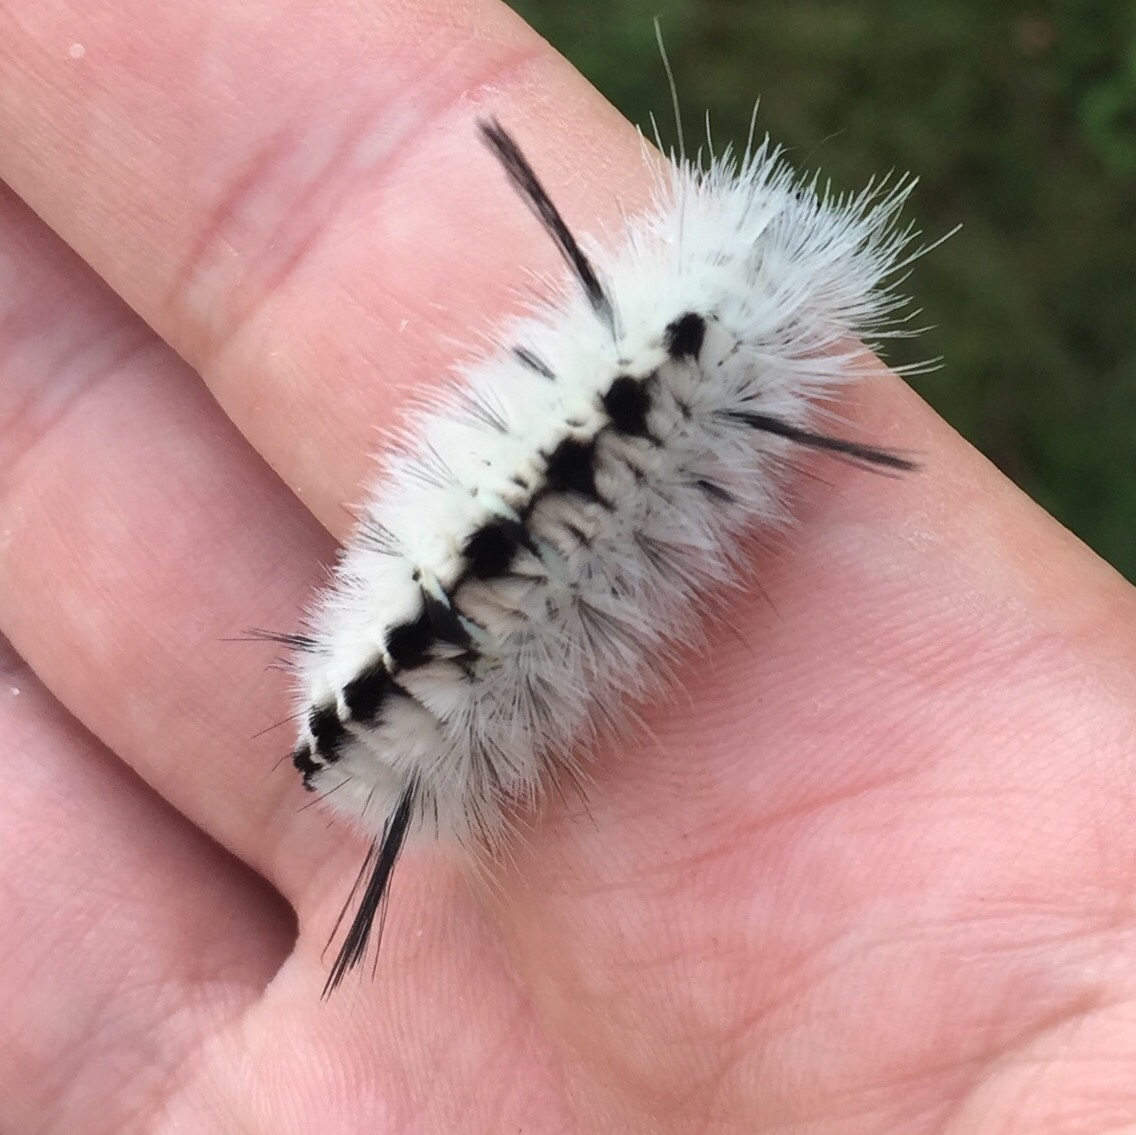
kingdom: Animalia
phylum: Arthropoda
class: Insecta
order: Lepidoptera
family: Erebidae
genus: Lophocampa
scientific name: Lophocampa caryae
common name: Hickory tussock moth
